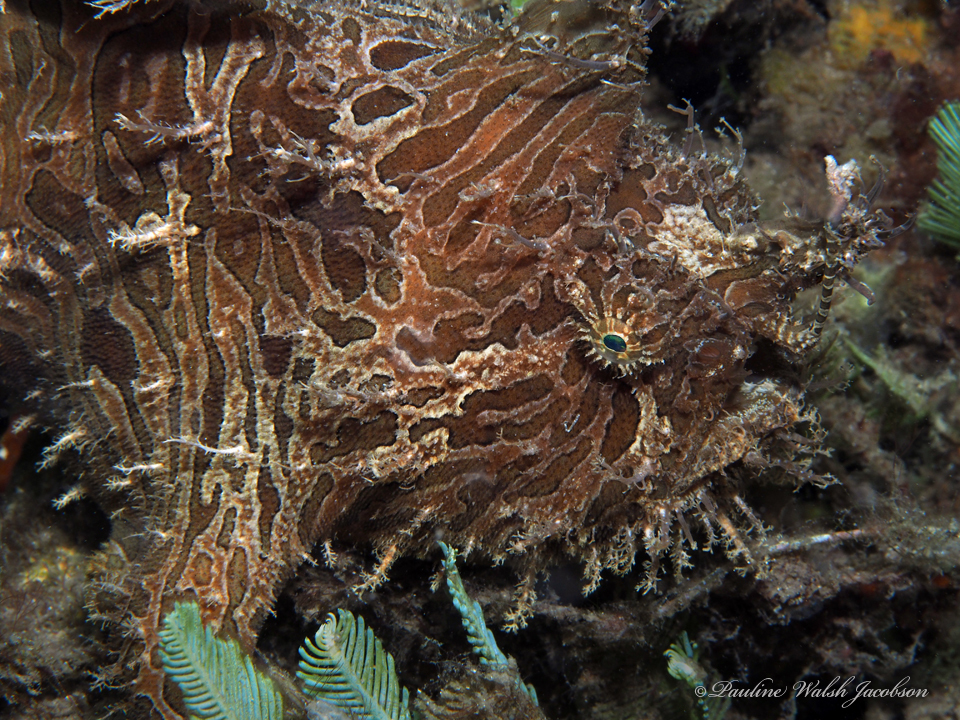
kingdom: Animalia
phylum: Chordata
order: Lophiiformes
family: Antennariidae
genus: Antennarius
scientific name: Antennarius striatus
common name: Striated frogfish
